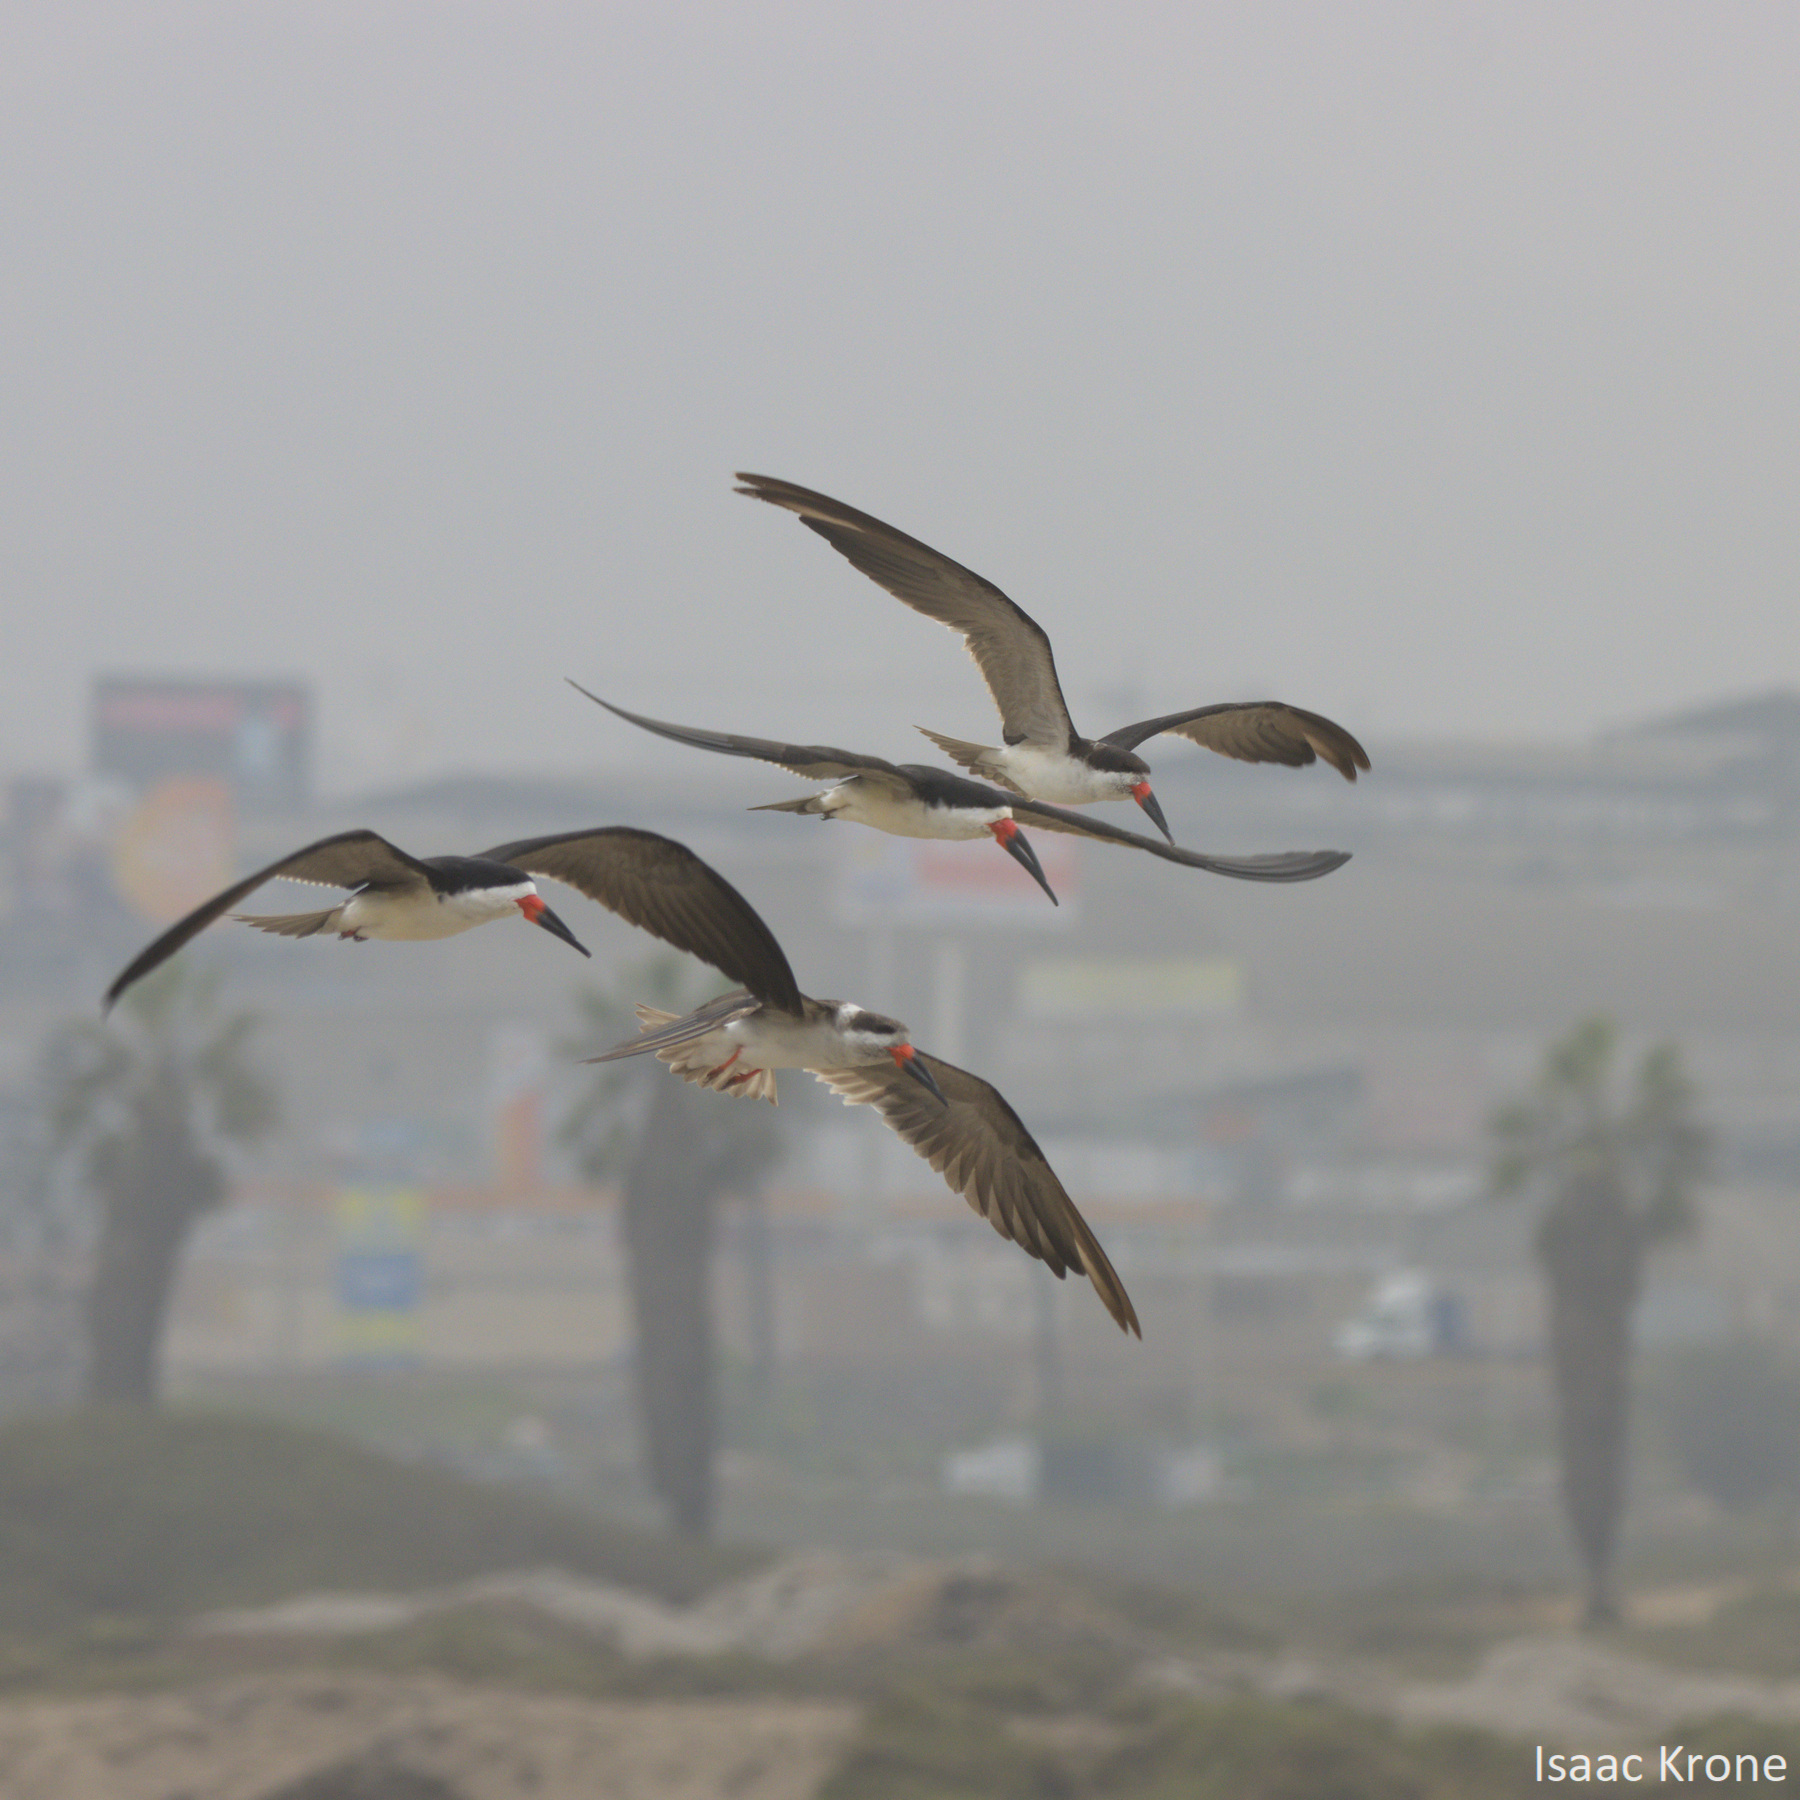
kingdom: Animalia
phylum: Chordata
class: Aves
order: Charadriiformes
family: Laridae
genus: Rynchops
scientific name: Rynchops niger
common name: Black skimmer
